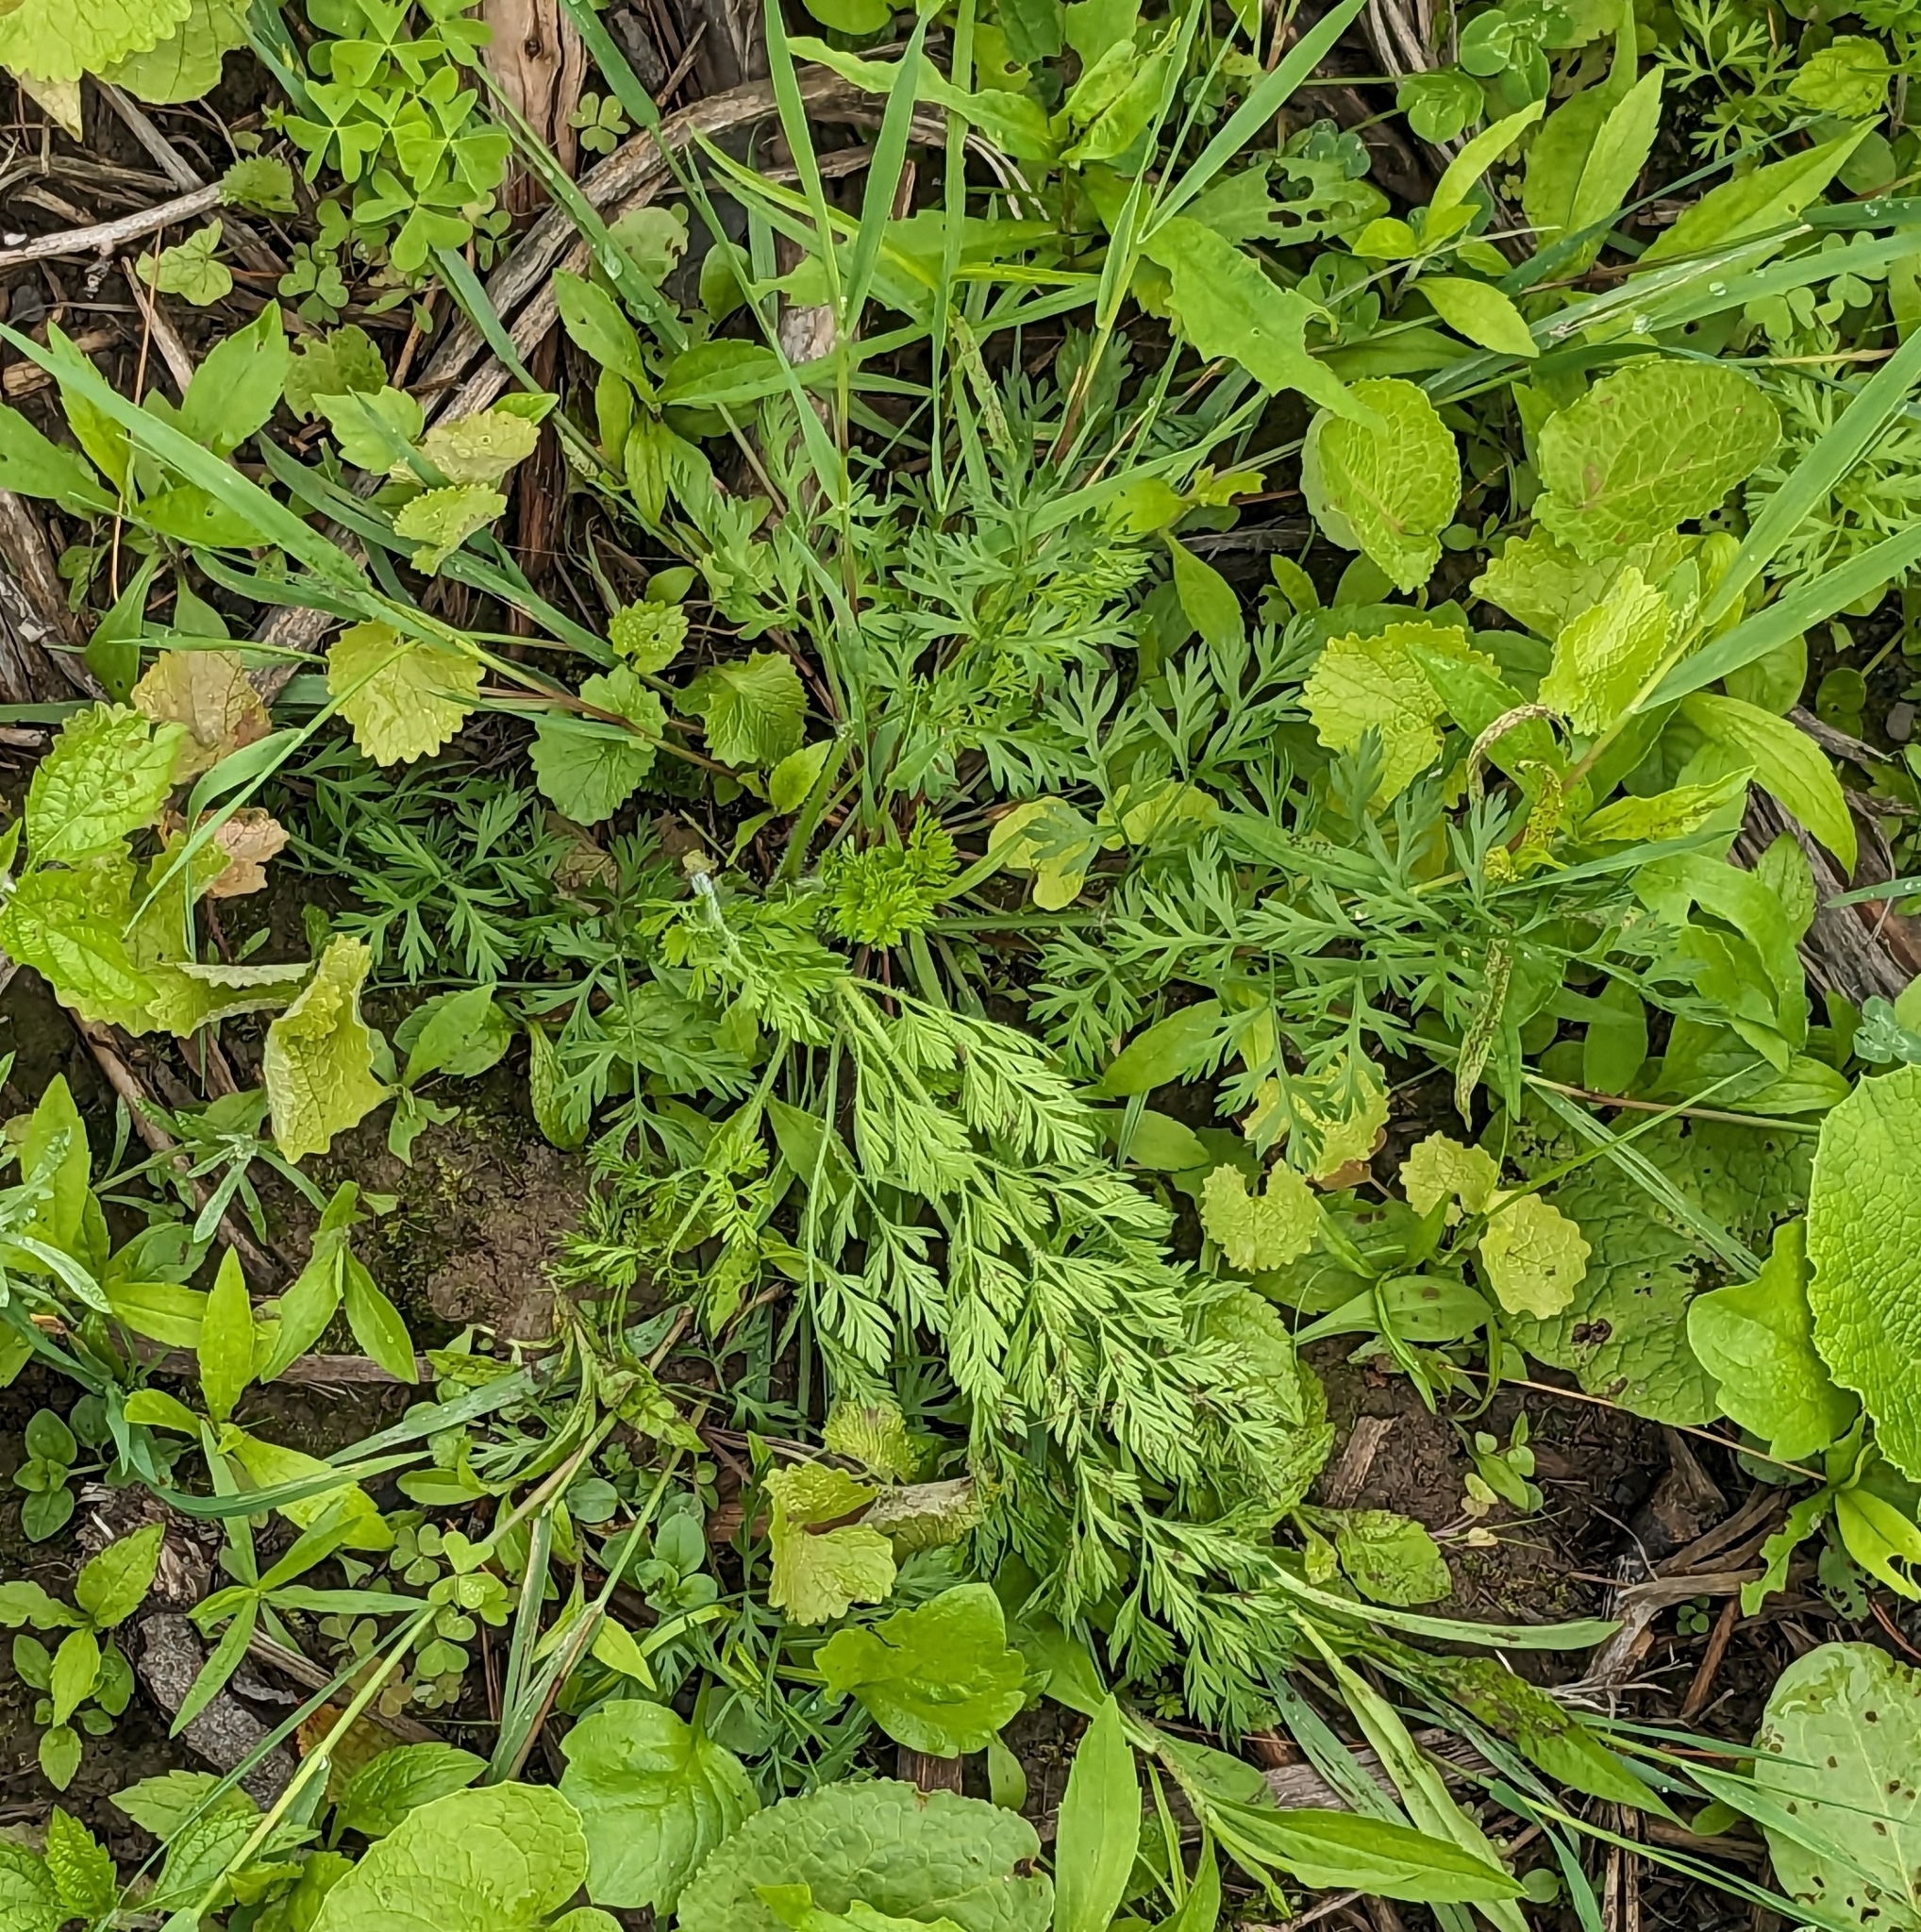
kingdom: Plantae
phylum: Tracheophyta
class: Magnoliopsida
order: Apiales
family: Apiaceae
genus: Daucus
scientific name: Daucus carota
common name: Wild carrot
